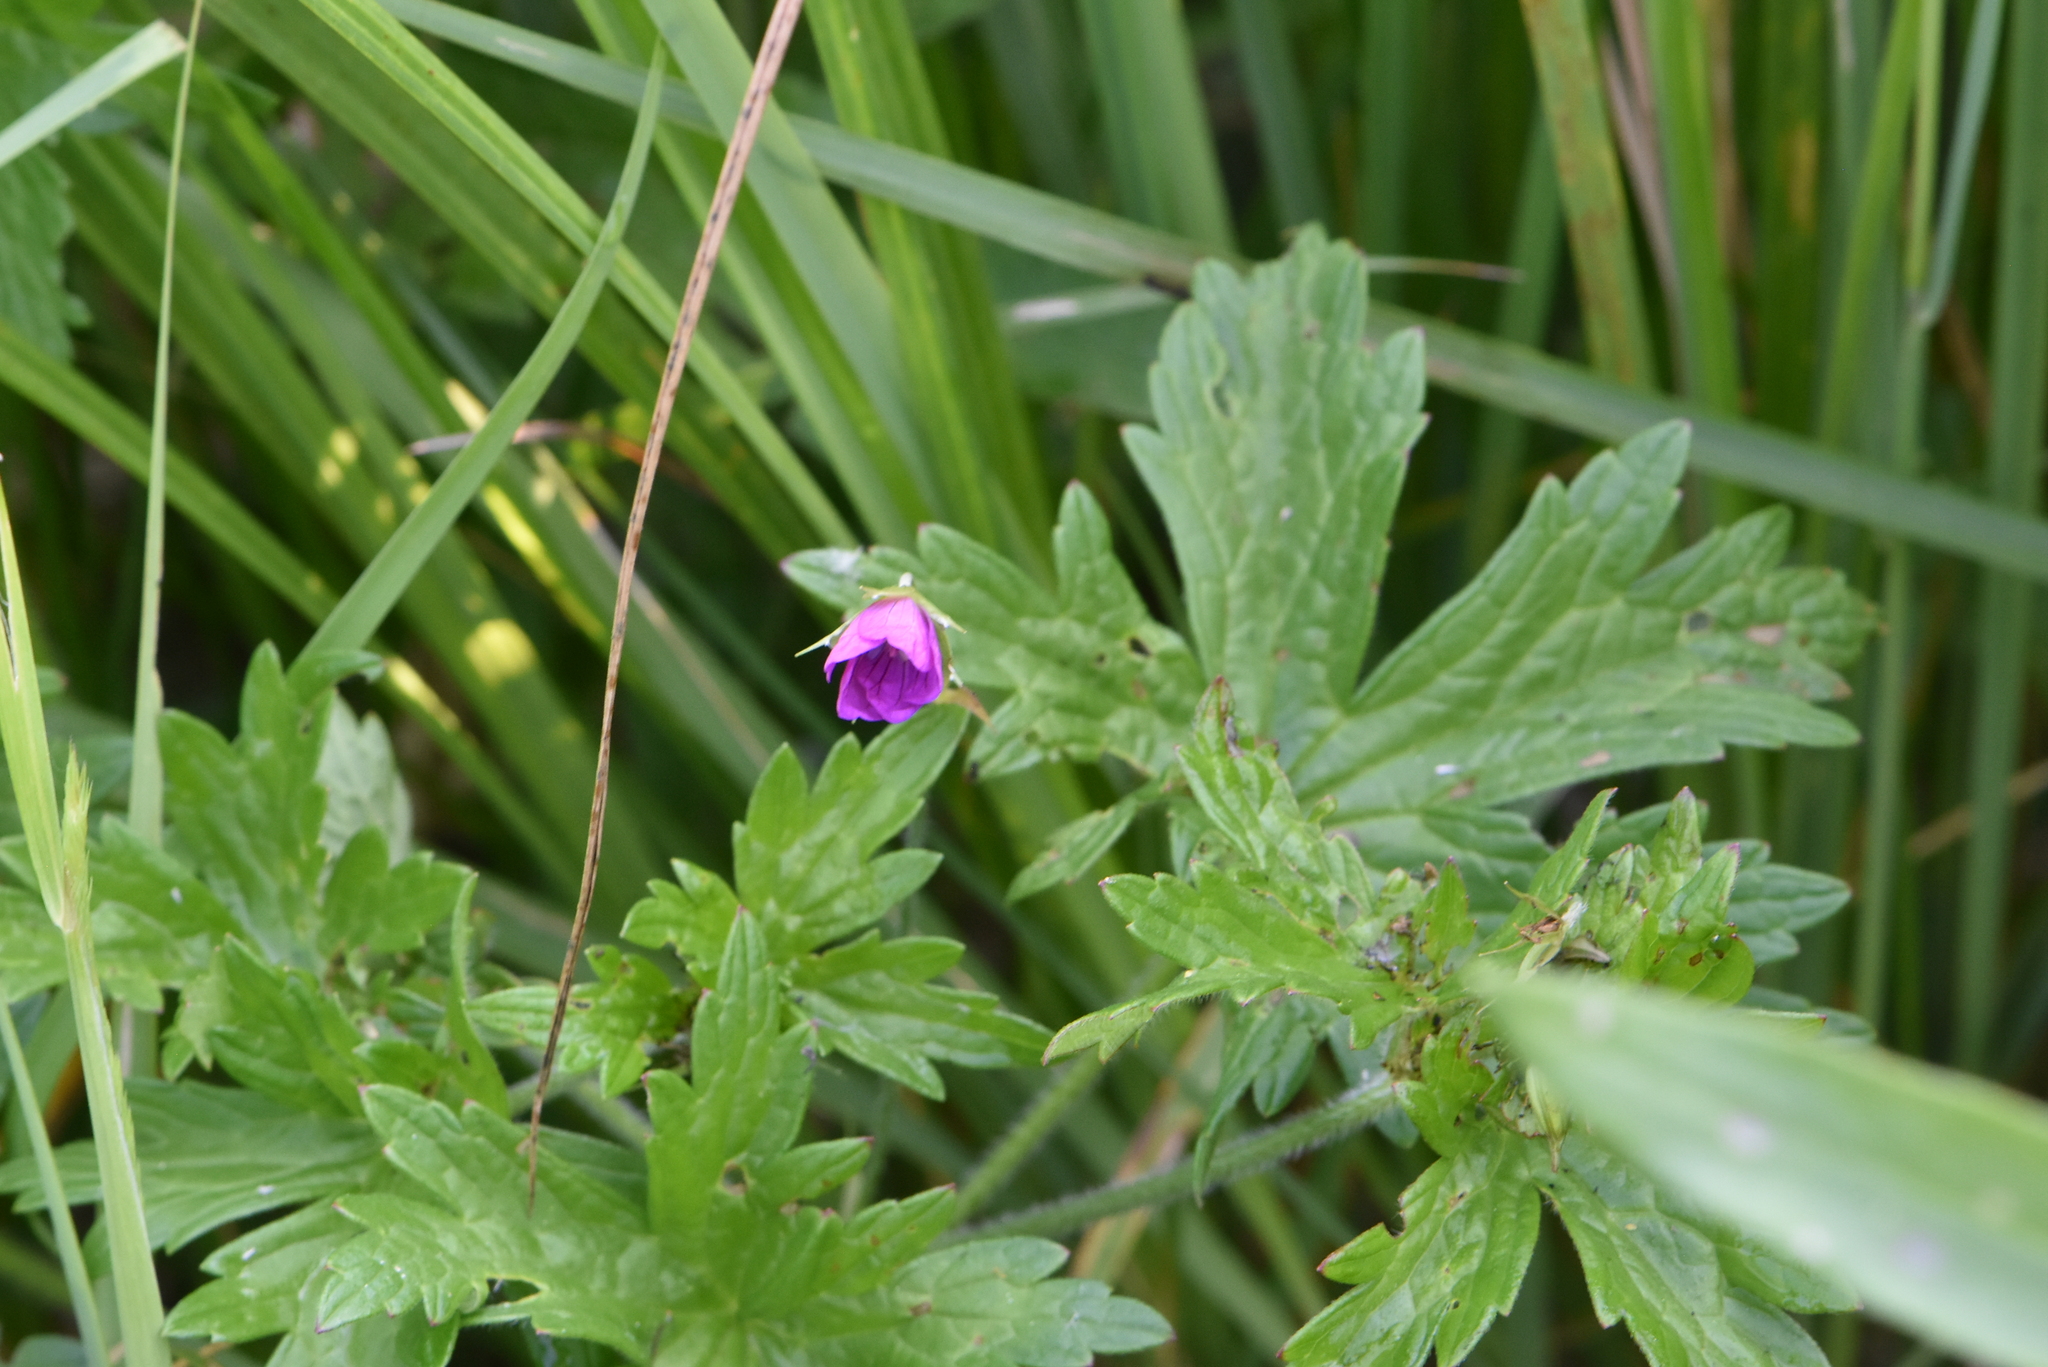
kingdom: Plantae
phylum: Tracheophyta
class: Magnoliopsida
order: Geraniales
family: Geraniaceae
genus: Geranium
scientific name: Geranium palustre
